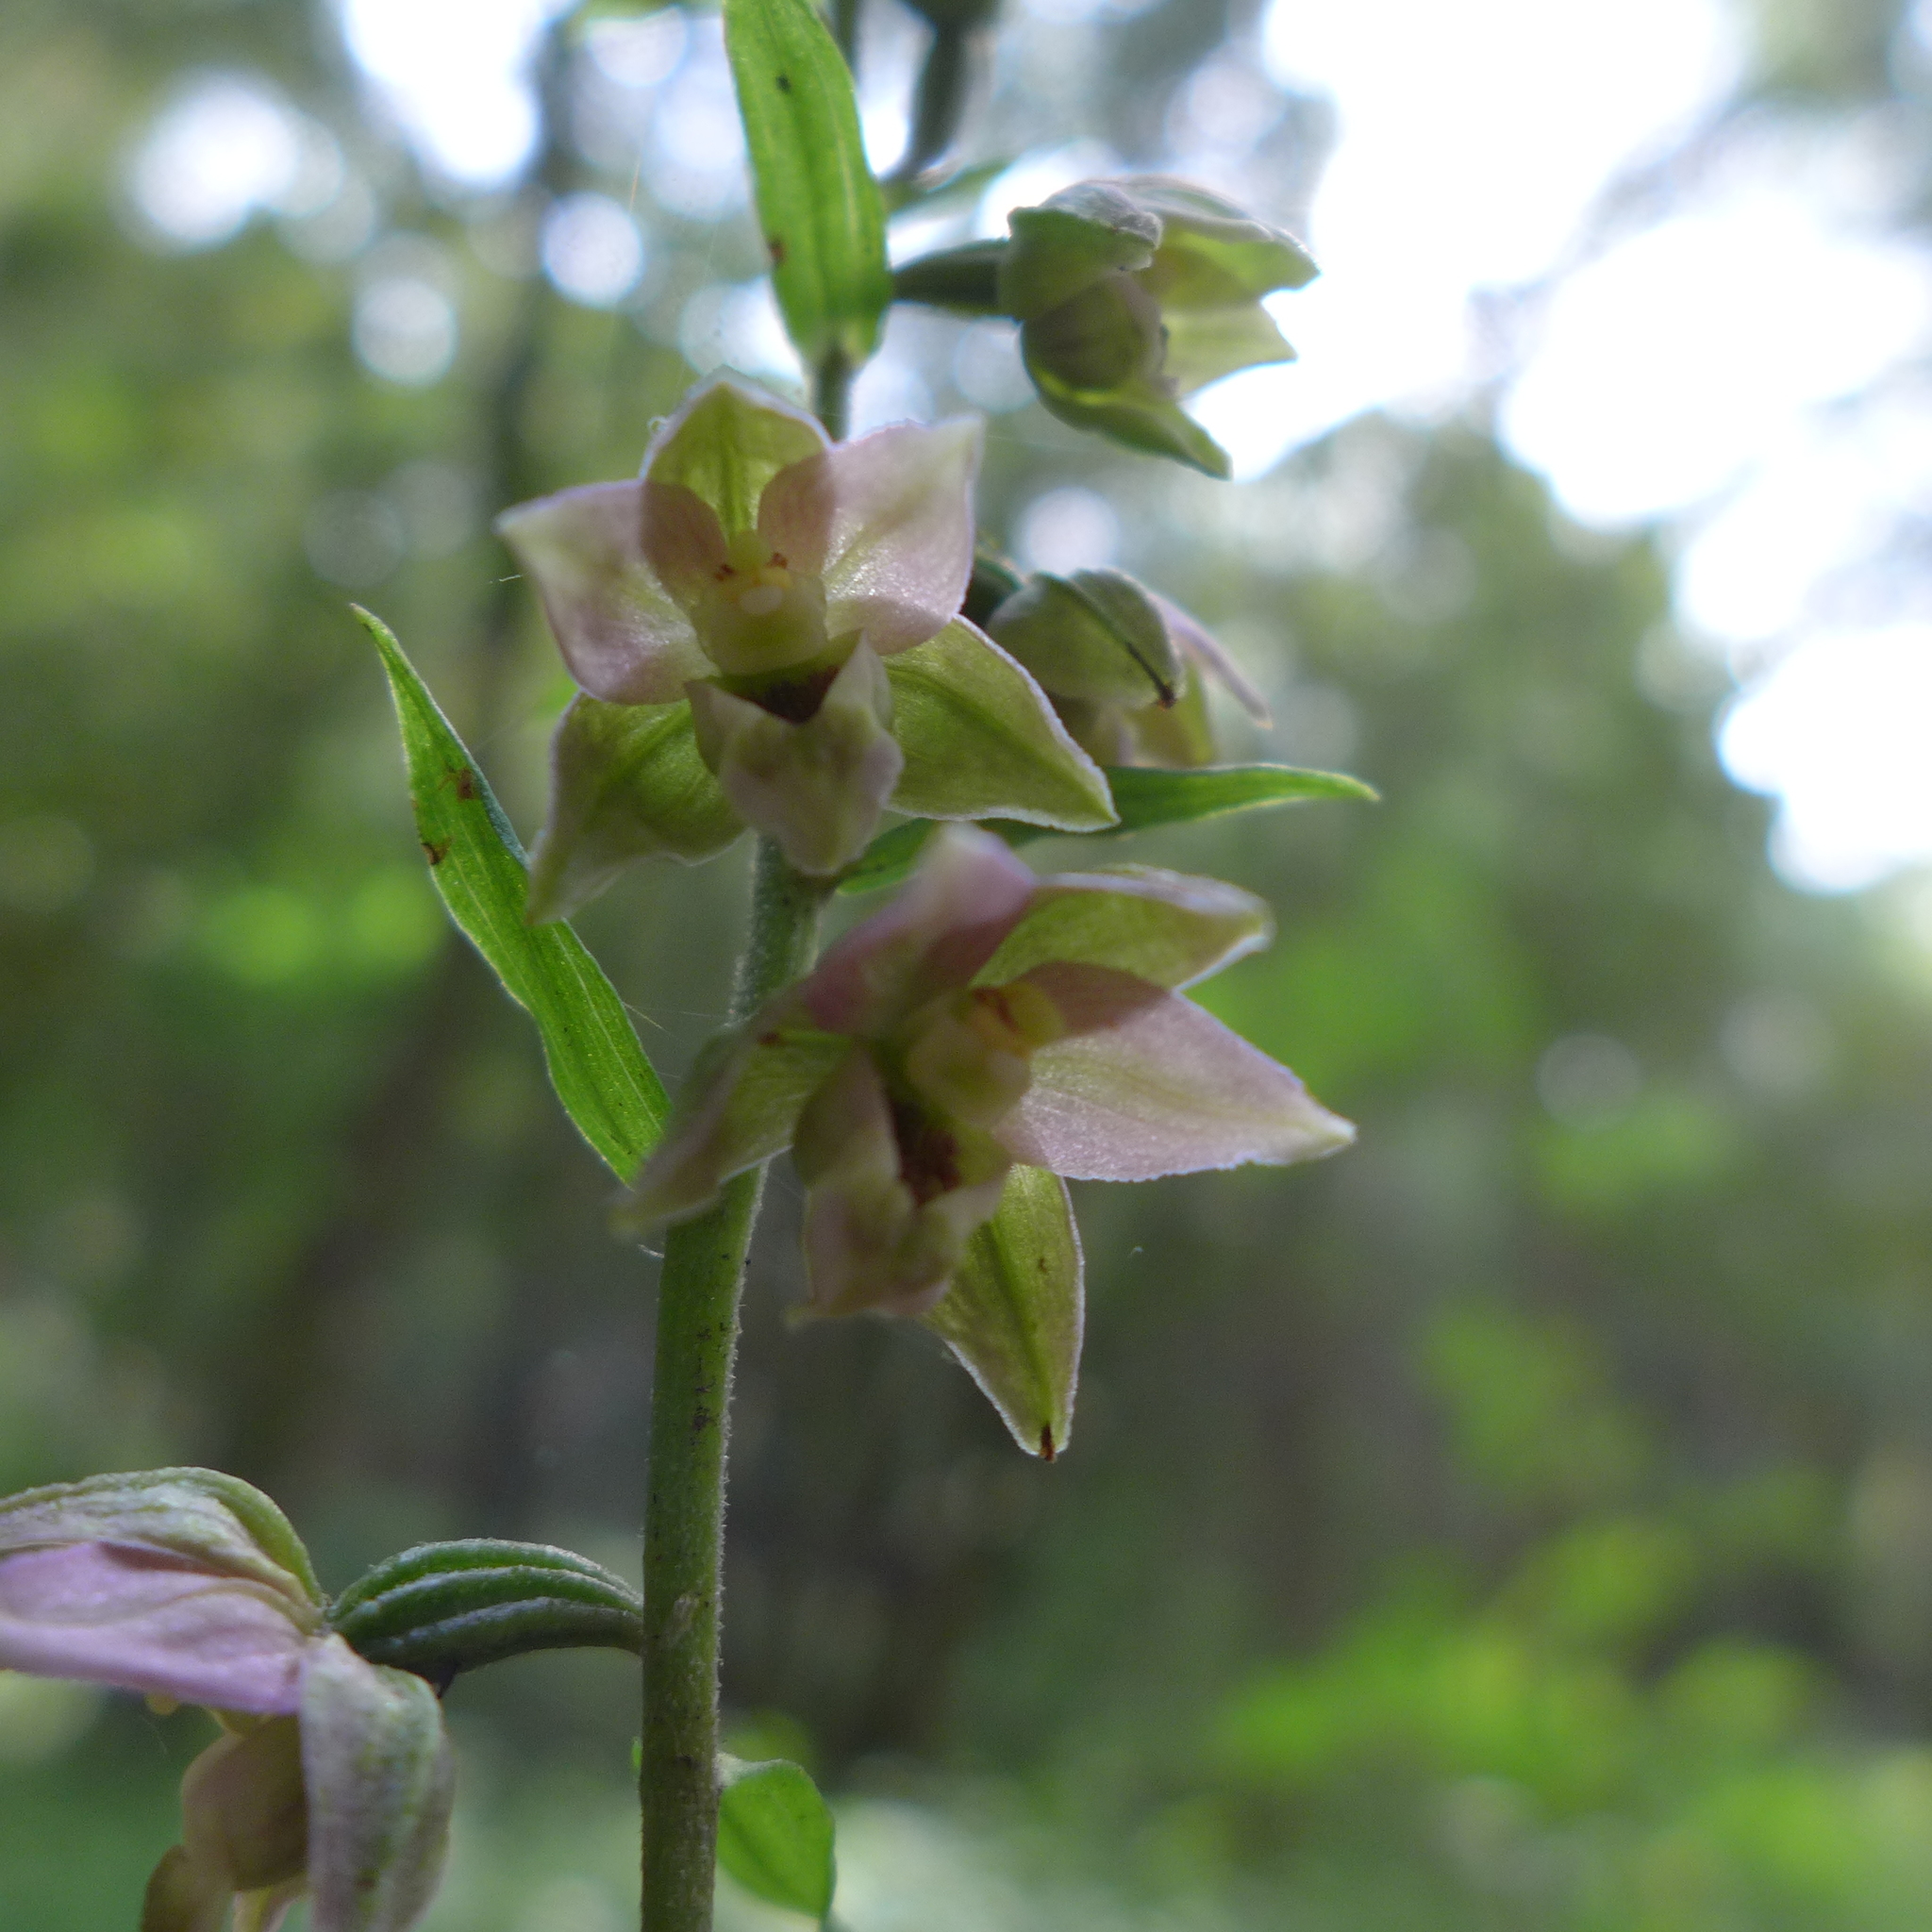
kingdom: Plantae
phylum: Tracheophyta
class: Liliopsida
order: Asparagales
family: Orchidaceae
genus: Epipactis
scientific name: Epipactis helleborine
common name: Broad-leaved helleborine
